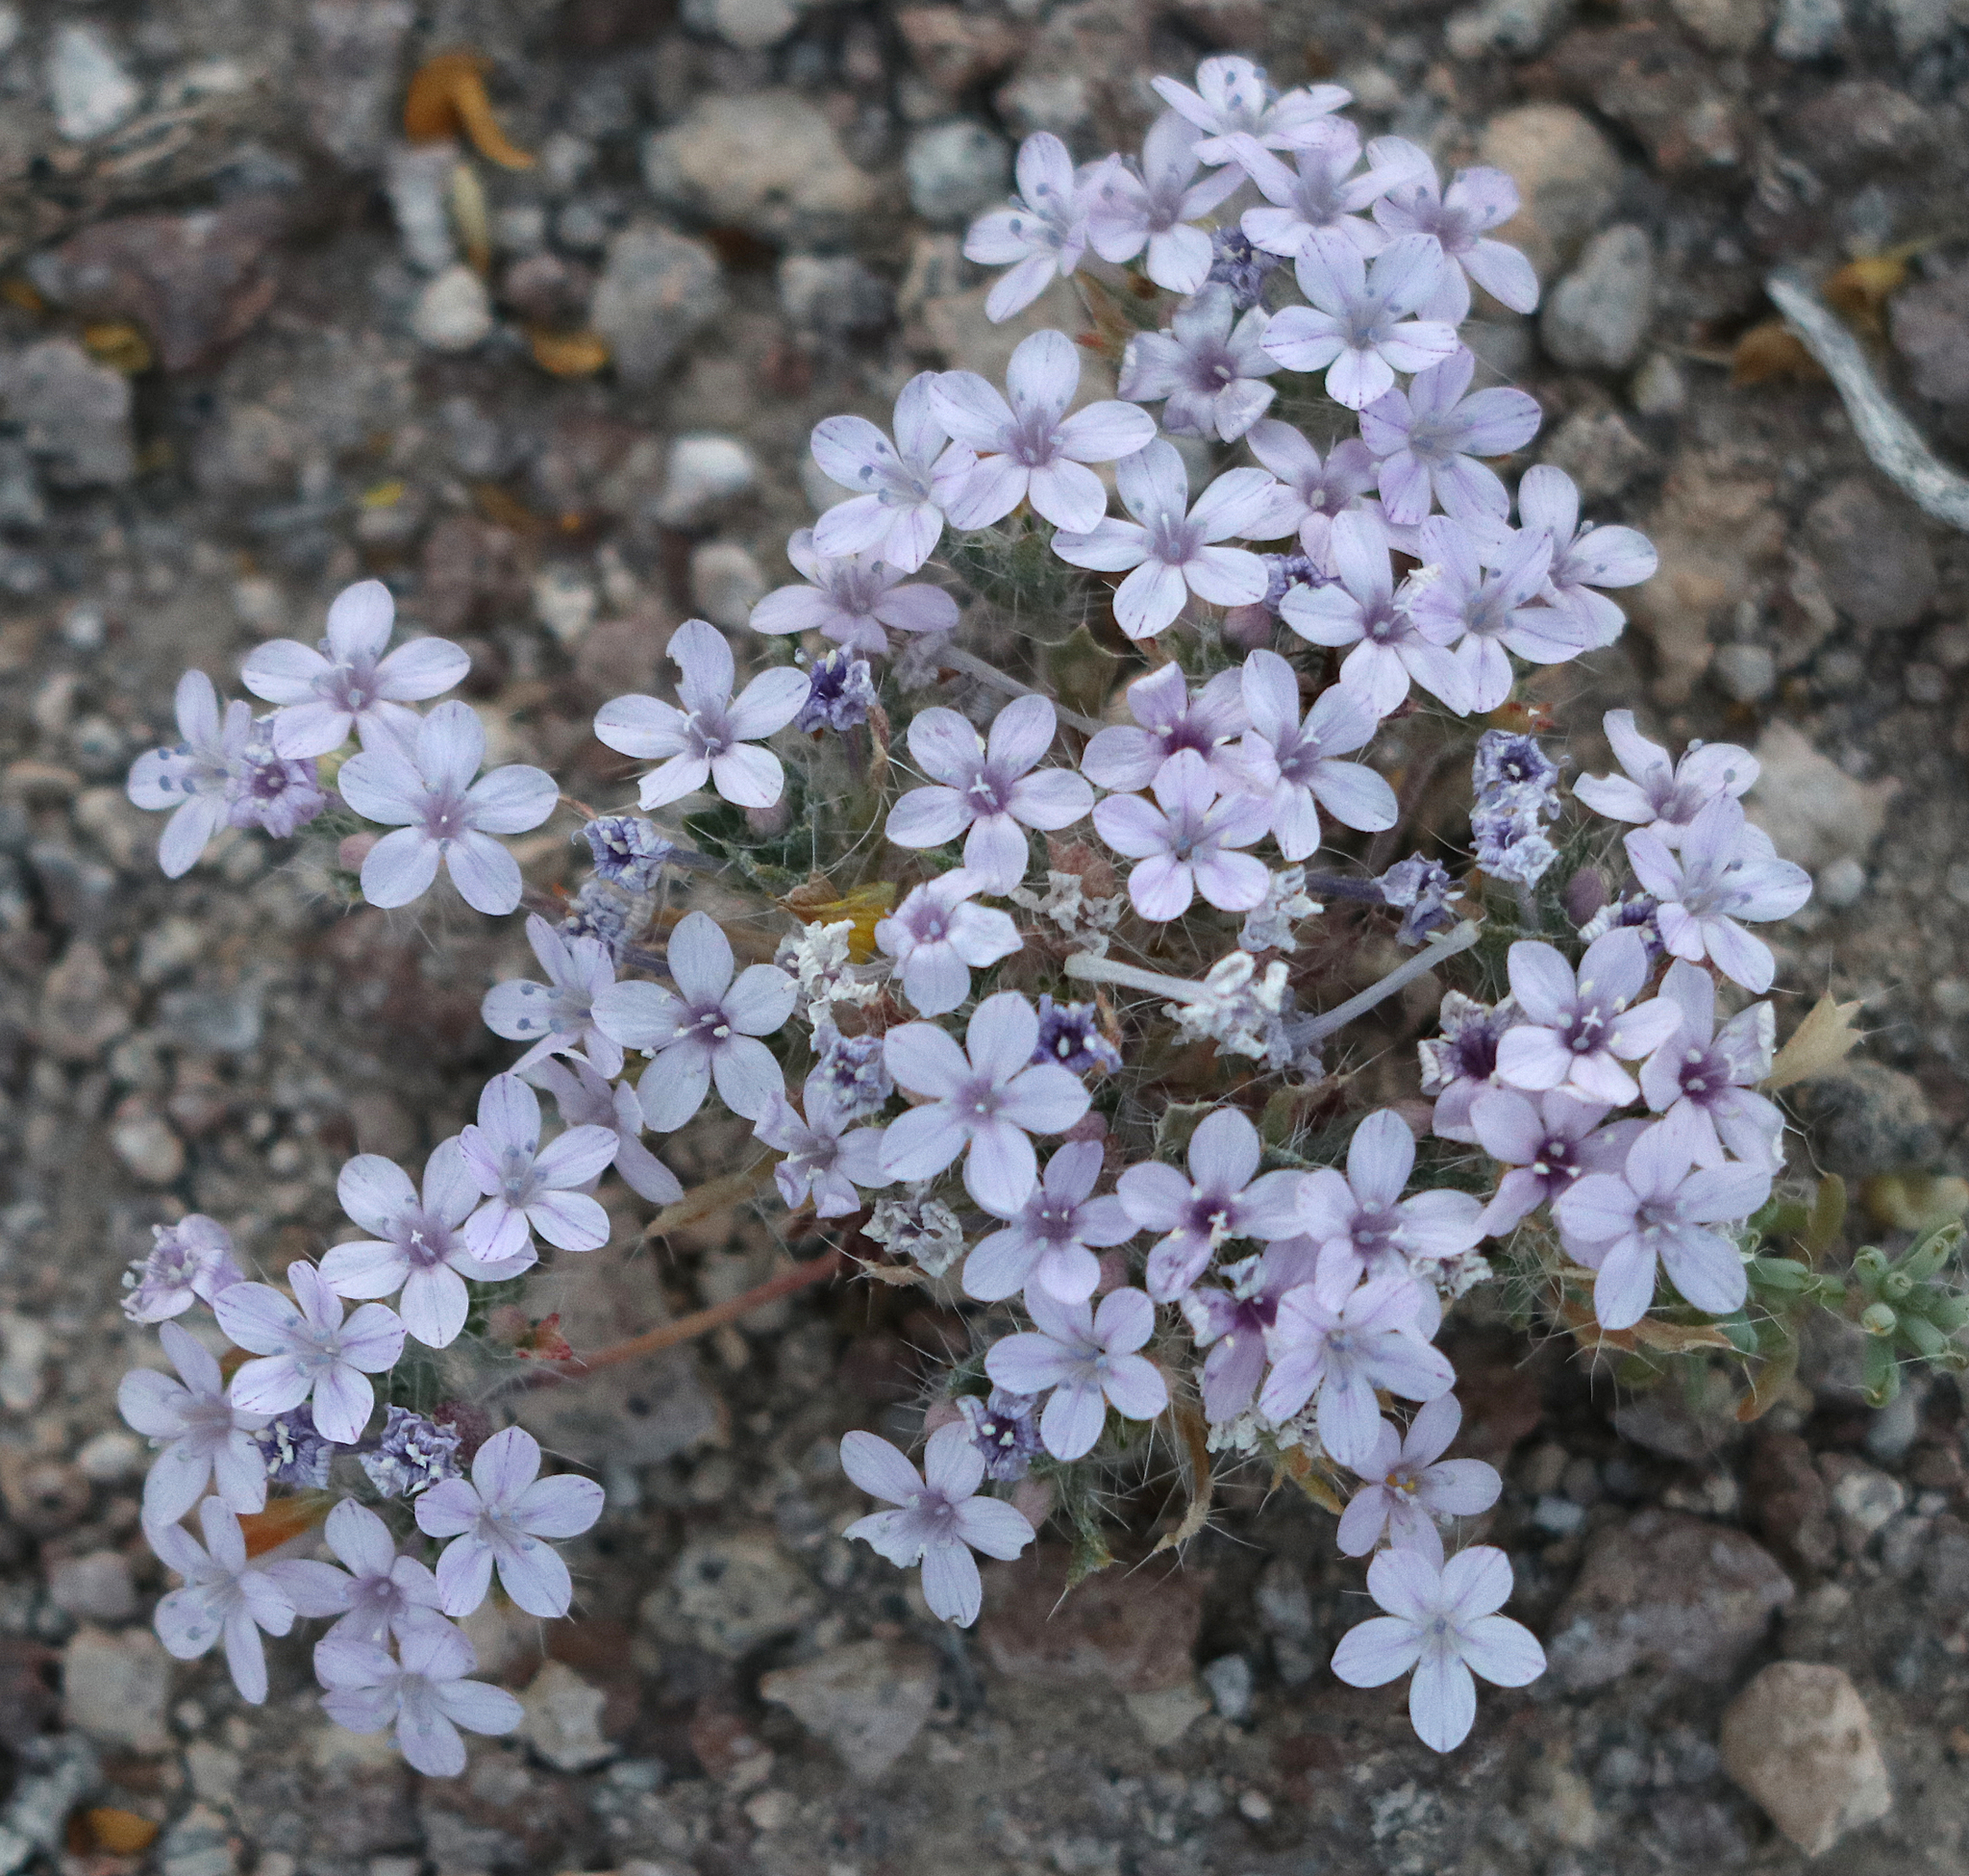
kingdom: Plantae
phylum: Tracheophyta
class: Magnoliopsida
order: Ericales
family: Polemoniaceae
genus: Langloisia
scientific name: Langloisia setosissima
